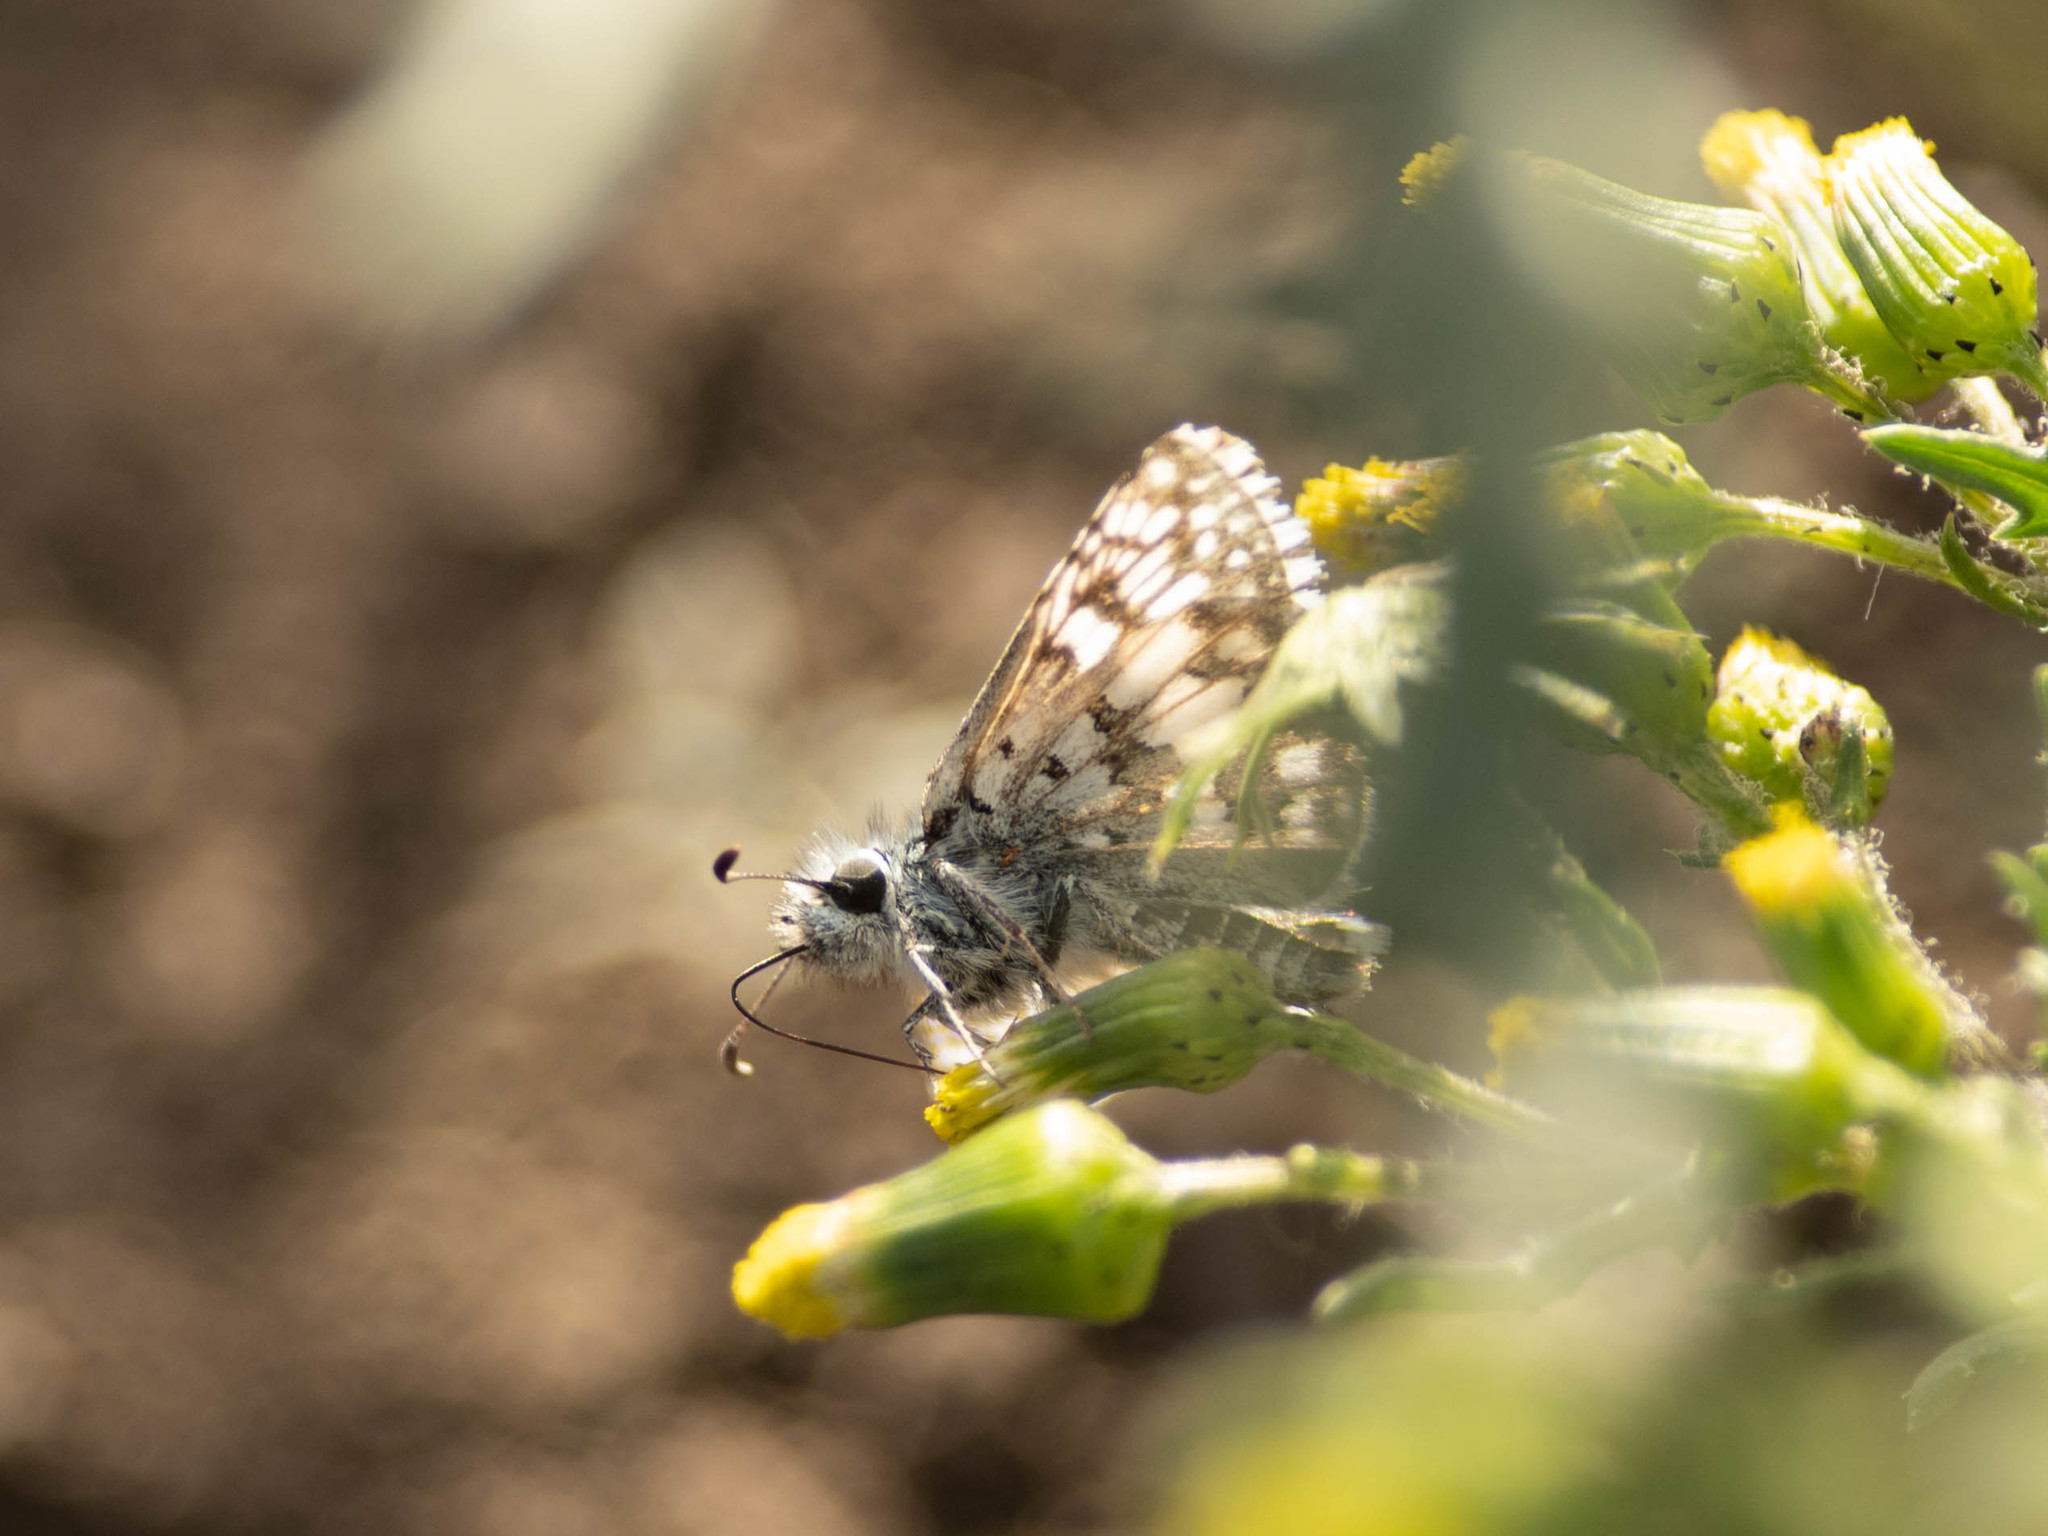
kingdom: Animalia
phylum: Arthropoda
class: Insecta
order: Lepidoptera
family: Hesperiidae
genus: Burnsius
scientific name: Burnsius communis
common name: Common checkered-skipper
